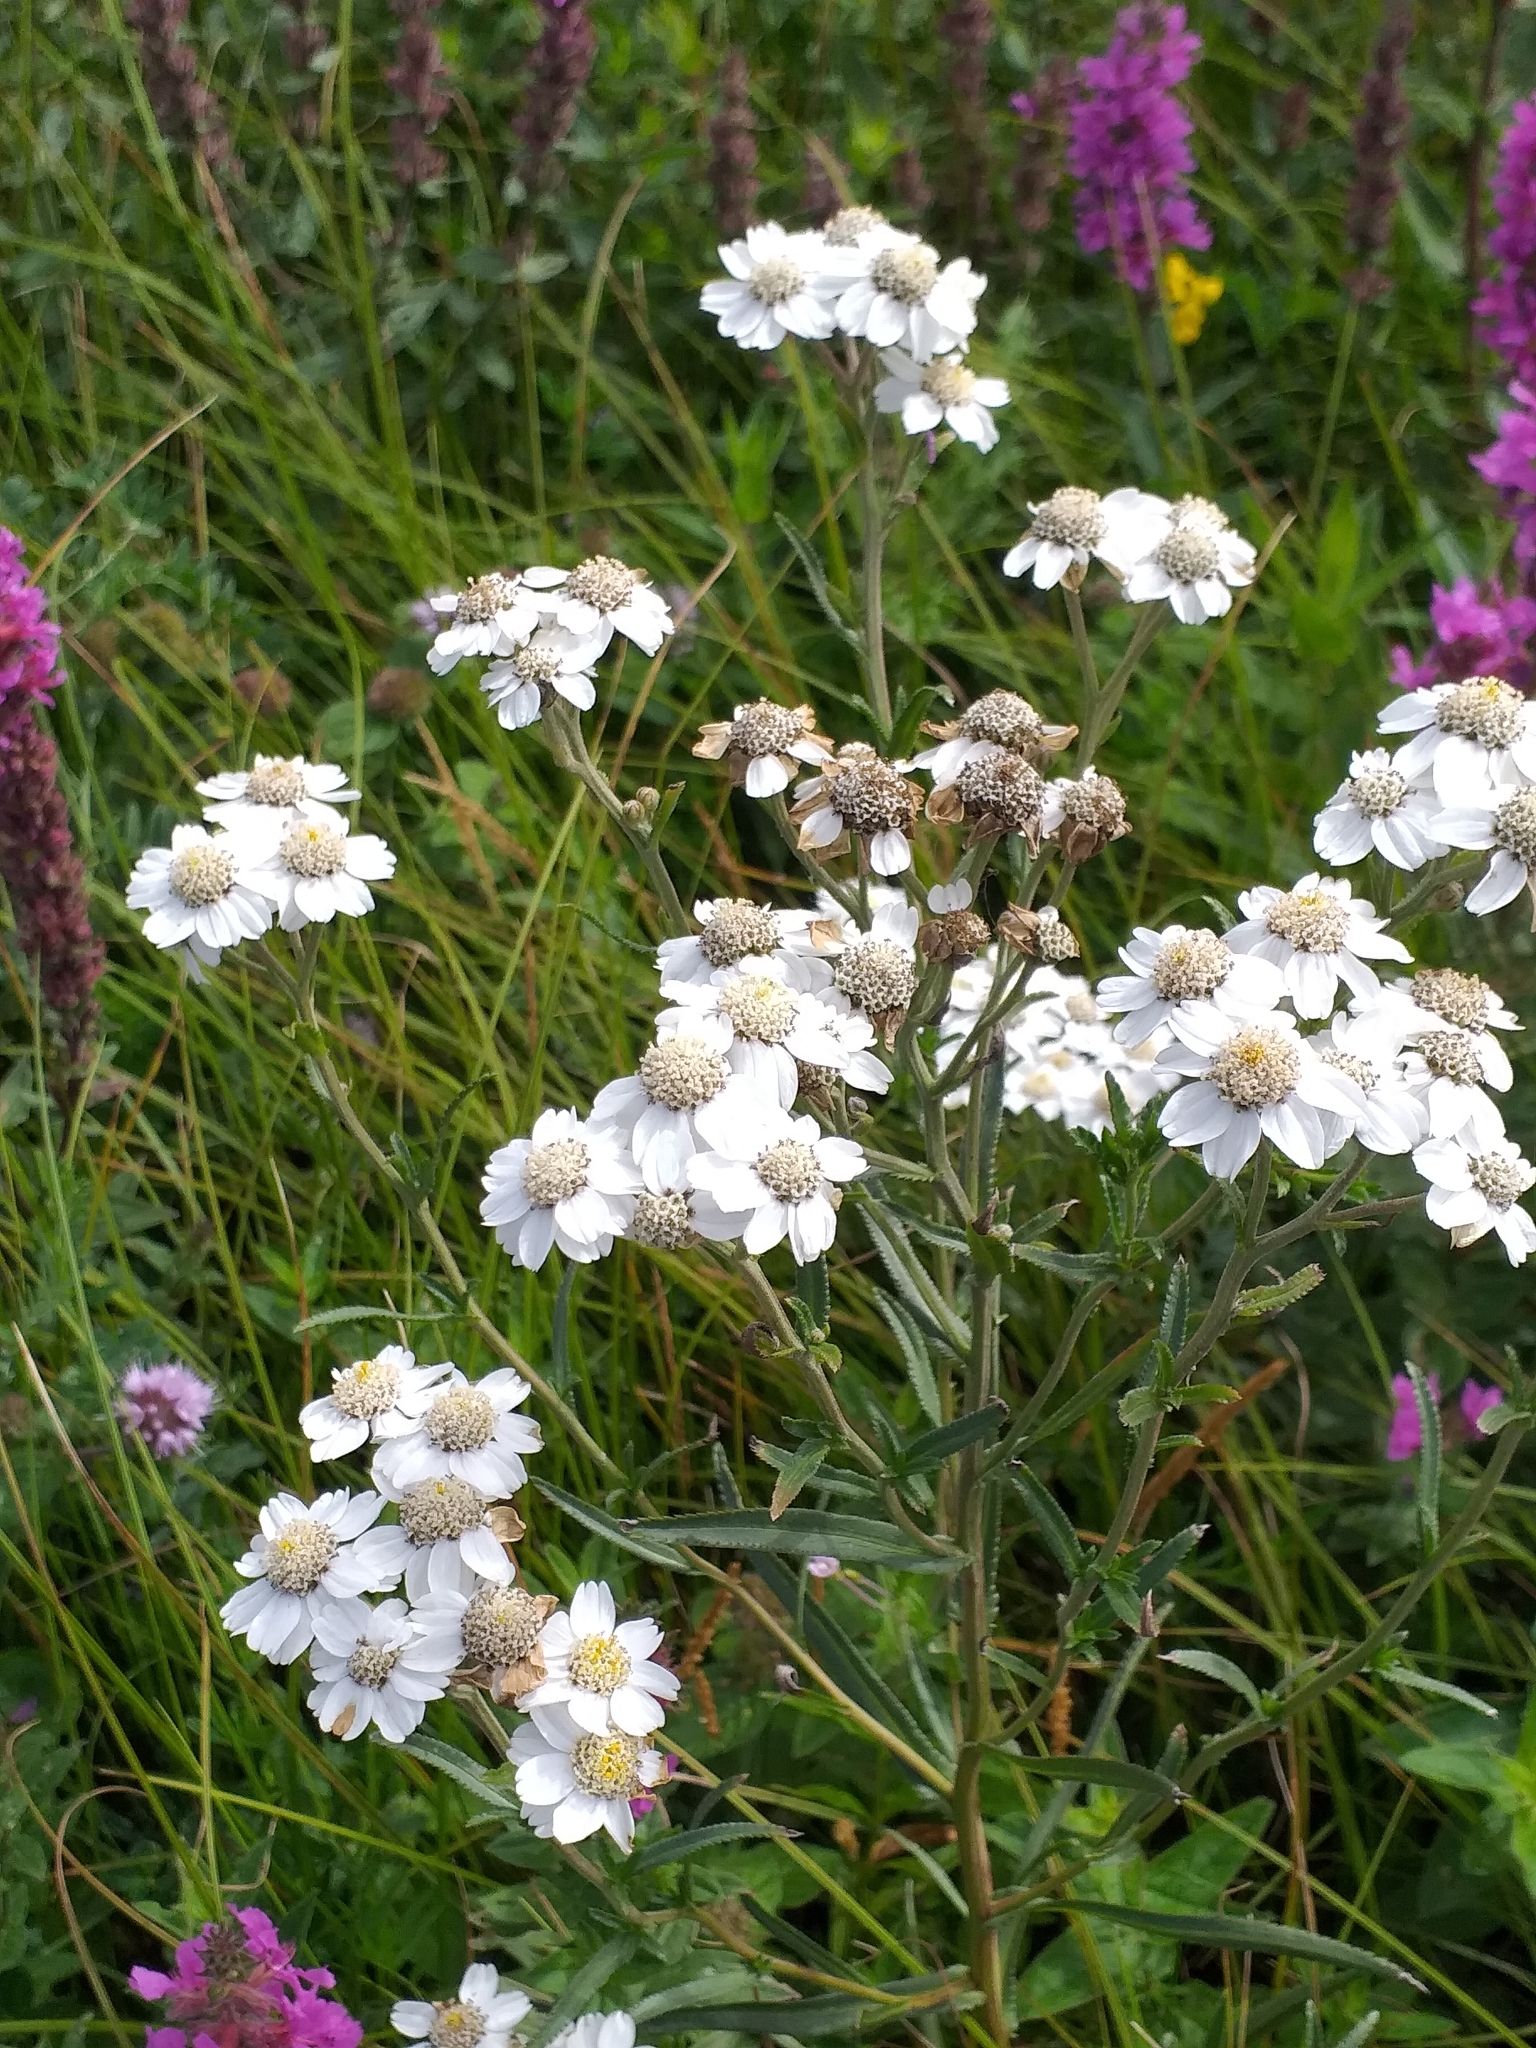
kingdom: Plantae
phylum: Tracheophyta
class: Magnoliopsida
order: Asterales
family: Asteraceae
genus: Achillea
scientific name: Achillea ptarmica
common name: Sneezeweed
